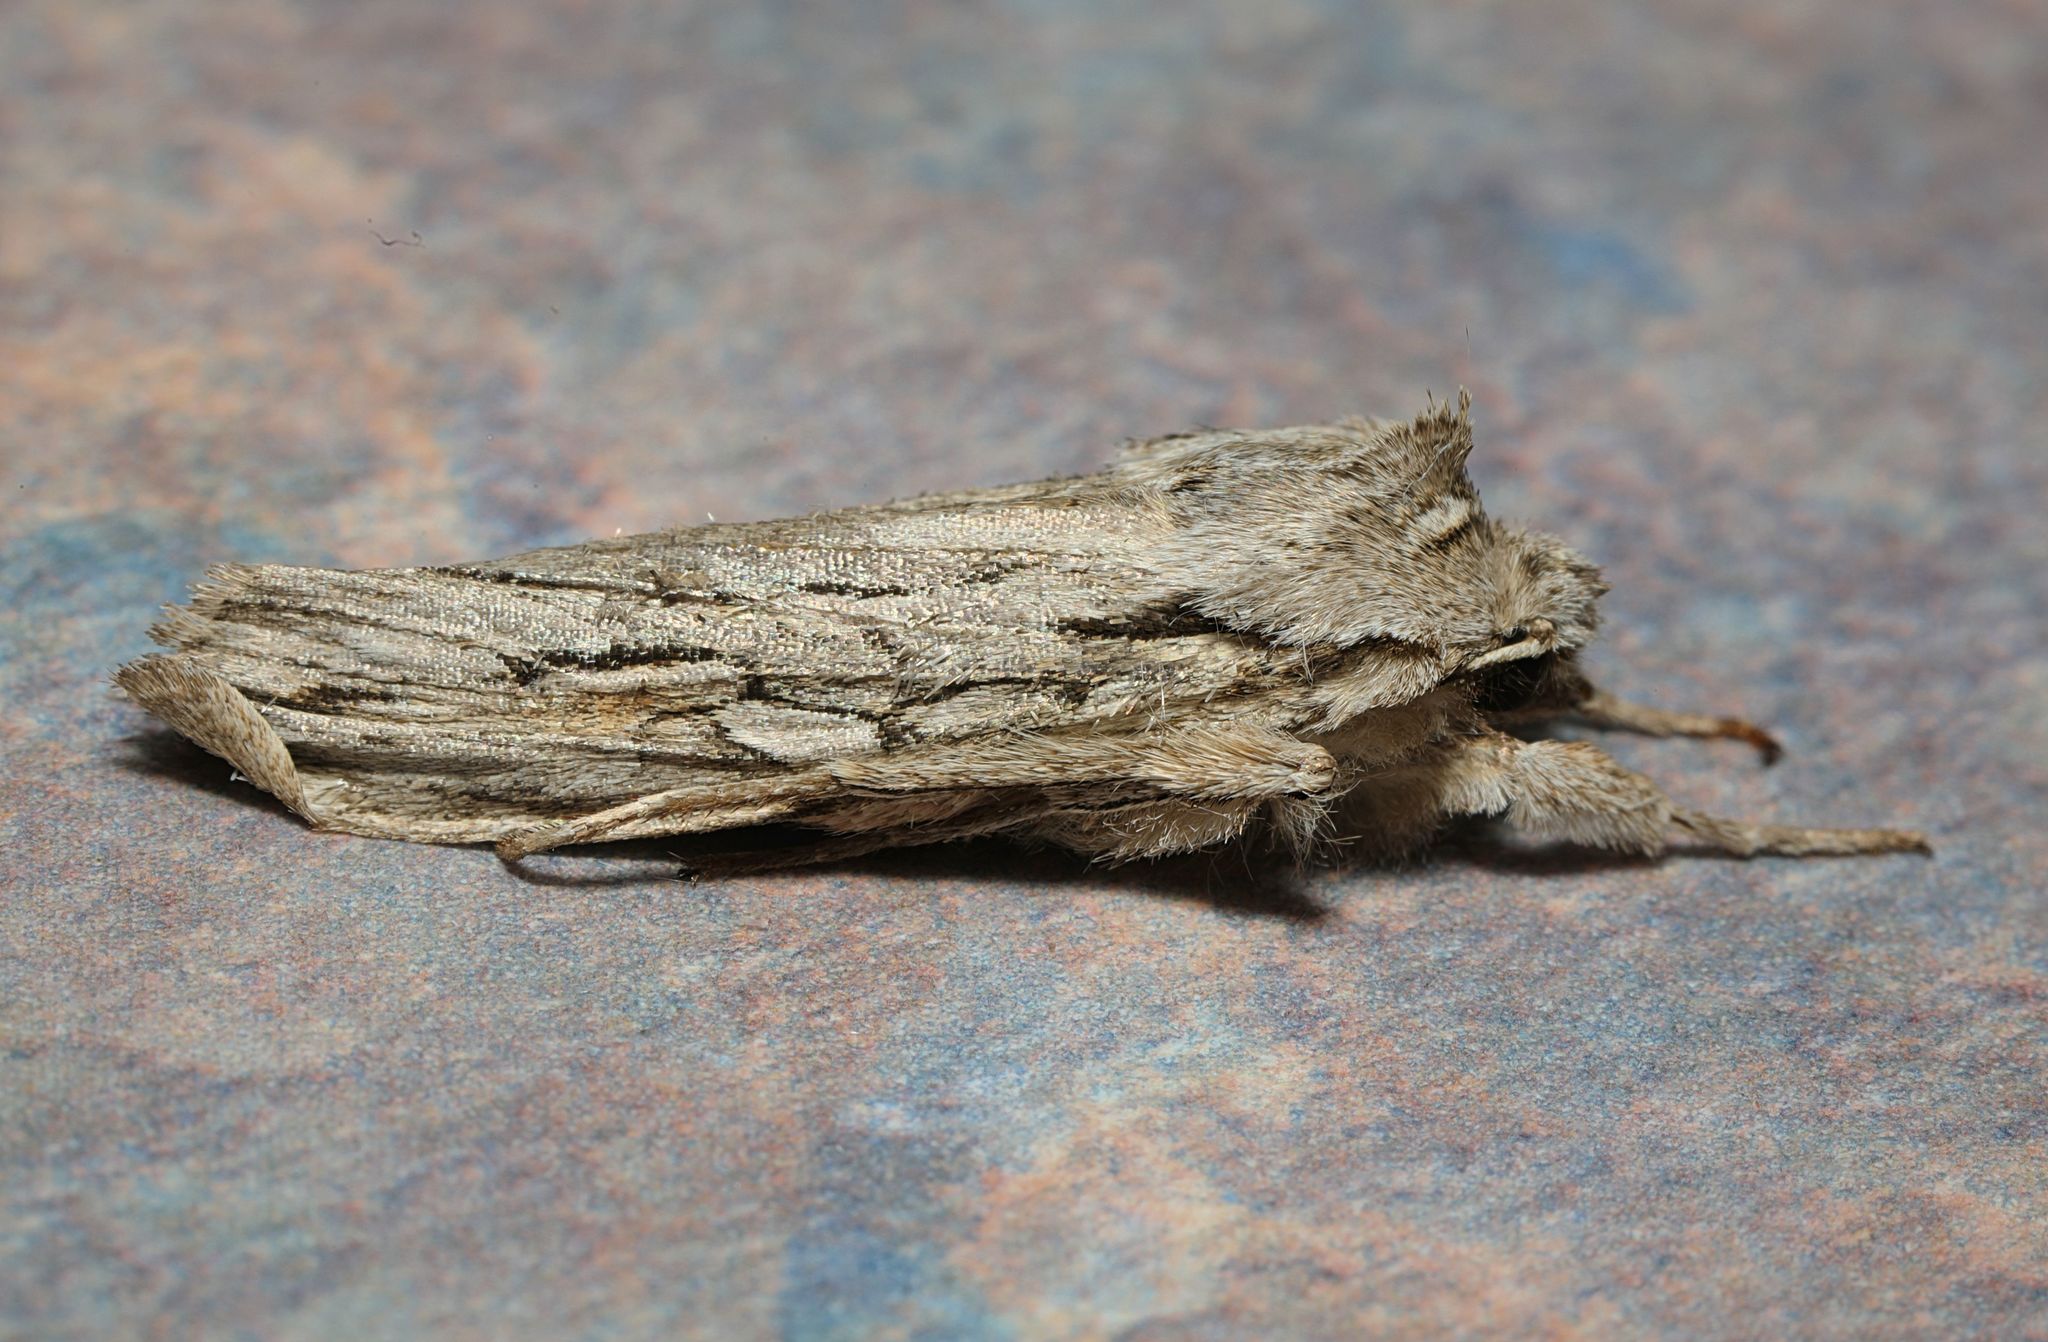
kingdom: Animalia
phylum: Arthropoda
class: Insecta
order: Lepidoptera
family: Noctuidae
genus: Lithophane
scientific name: Lithophane leautieri
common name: Blair's shoulder-knot
